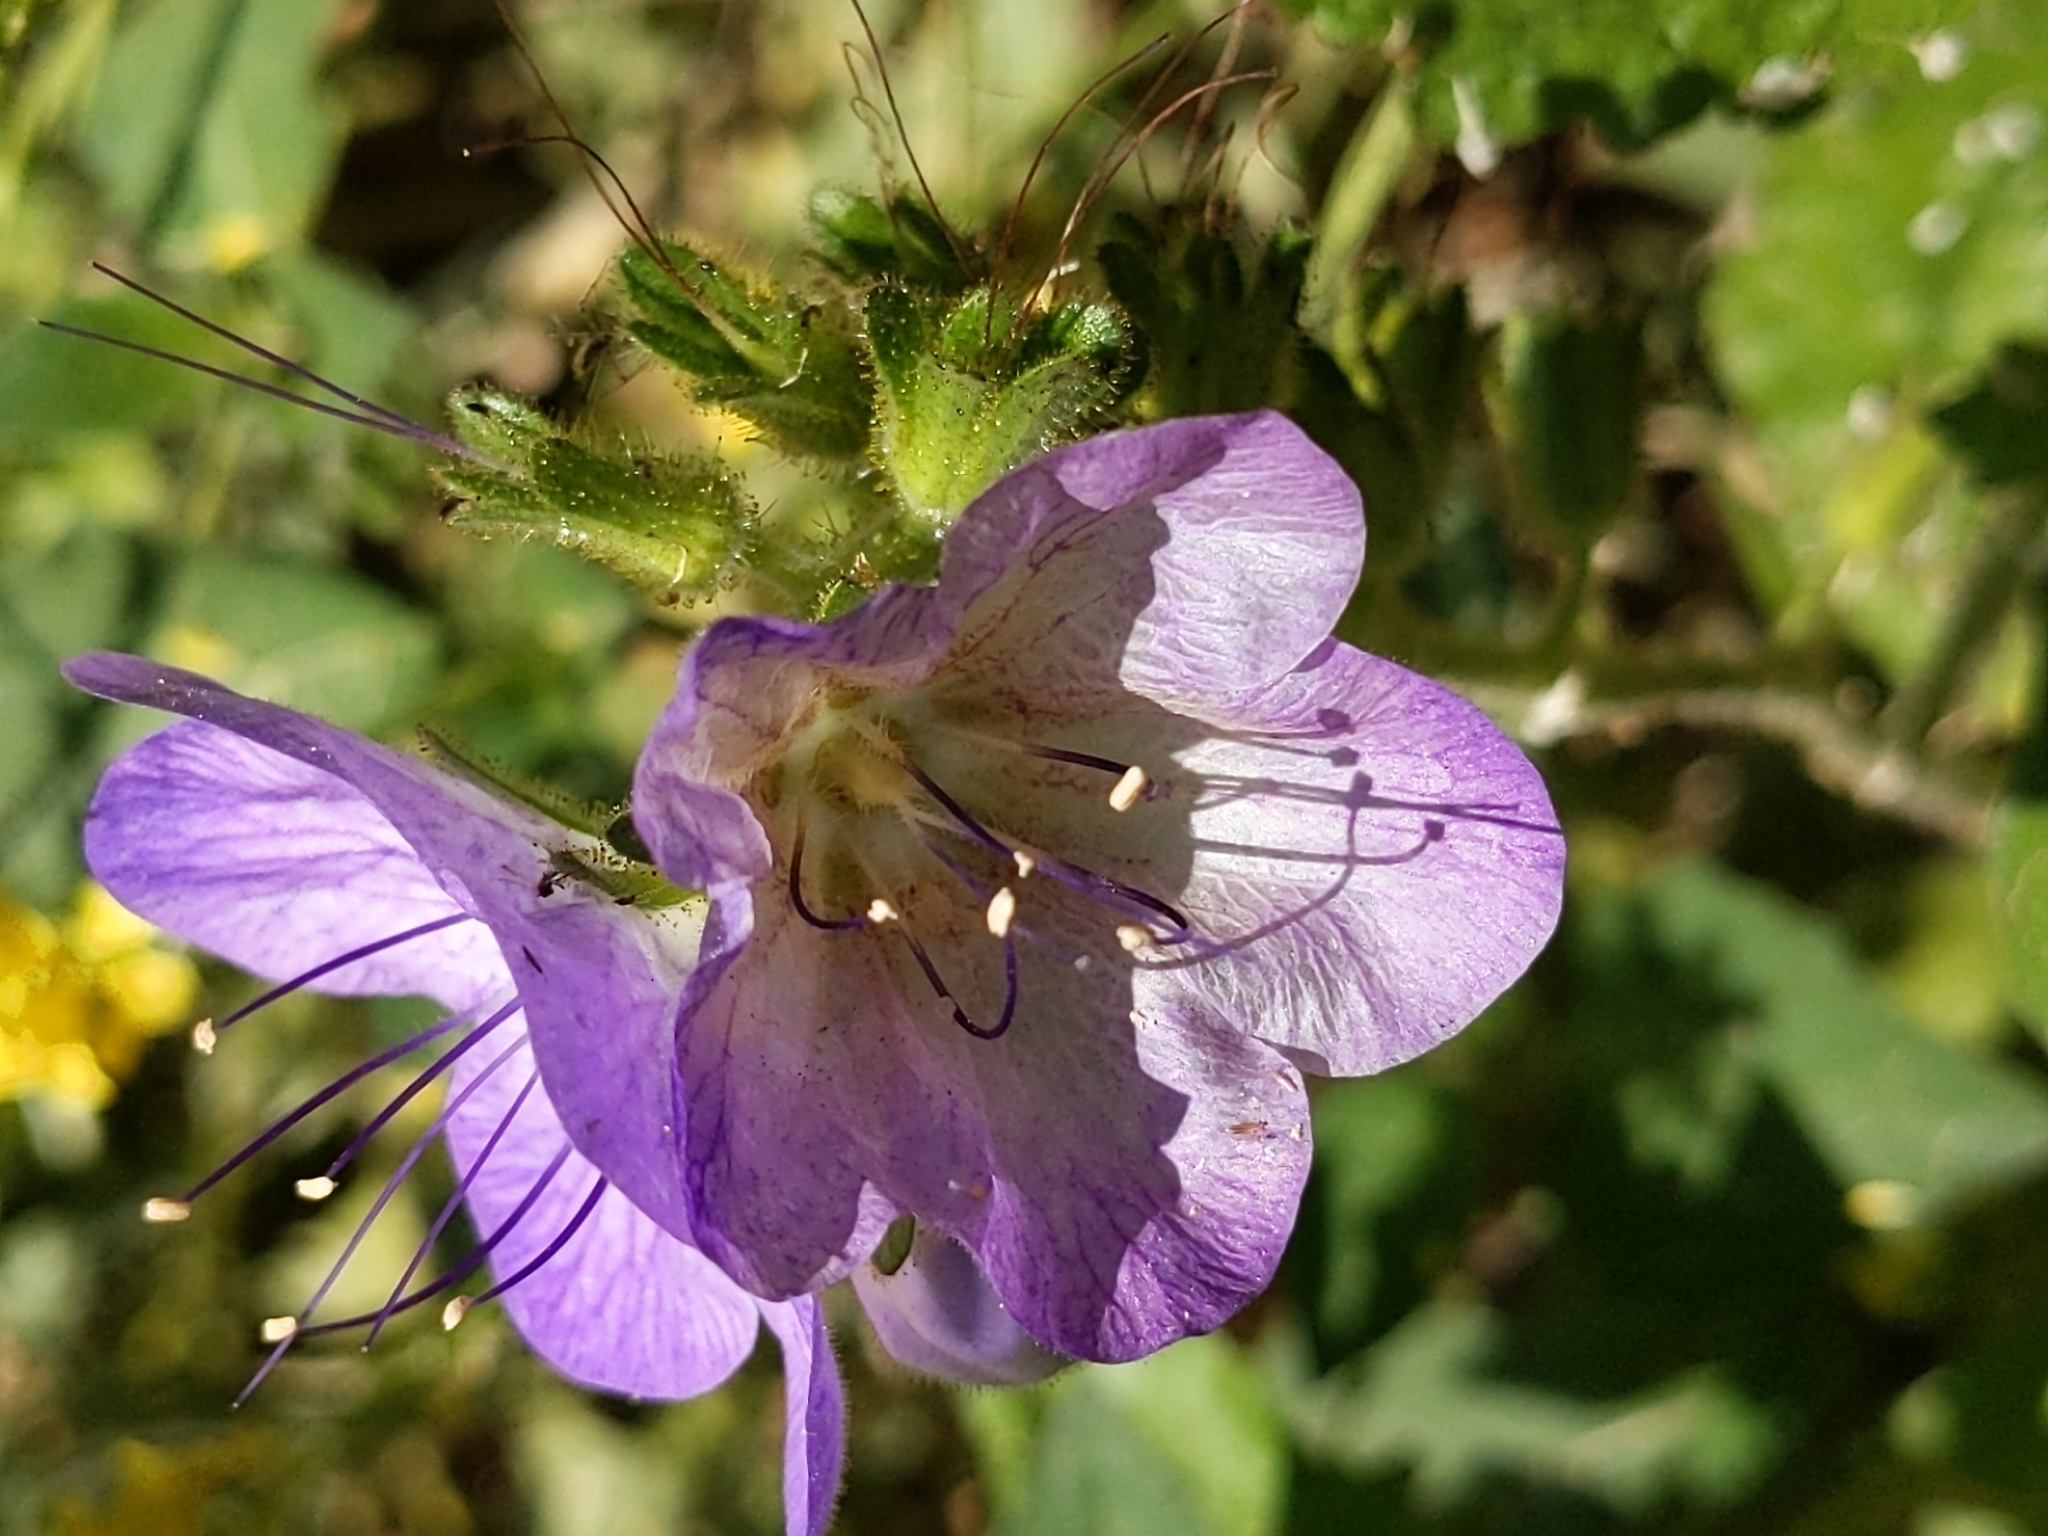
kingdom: Plantae
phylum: Tracheophyta
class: Magnoliopsida
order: Boraginales
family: Hydrophyllaceae
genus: Phacelia
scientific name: Phacelia grandiflora
